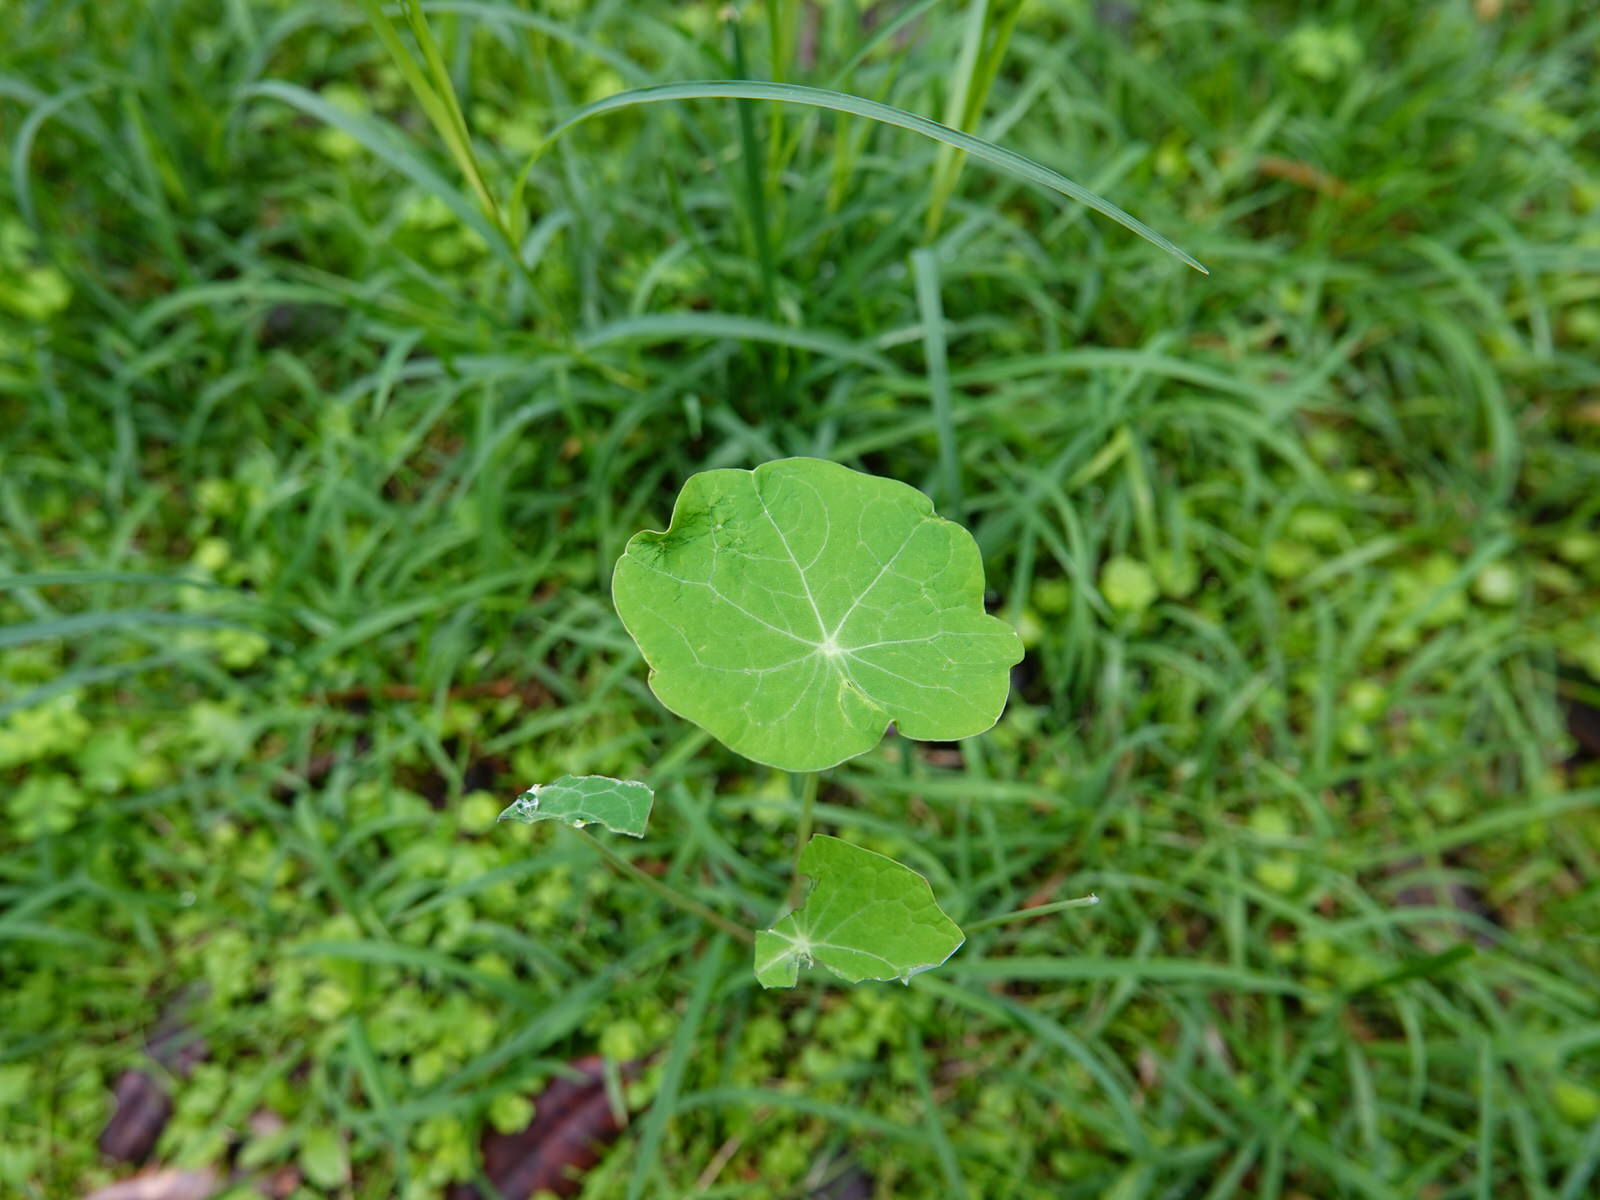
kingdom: Plantae
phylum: Tracheophyta
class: Magnoliopsida
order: Brassicales
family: Tropaeolaceae
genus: Tropaeolum
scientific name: Tropaeolum majus
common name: Nasturtium
